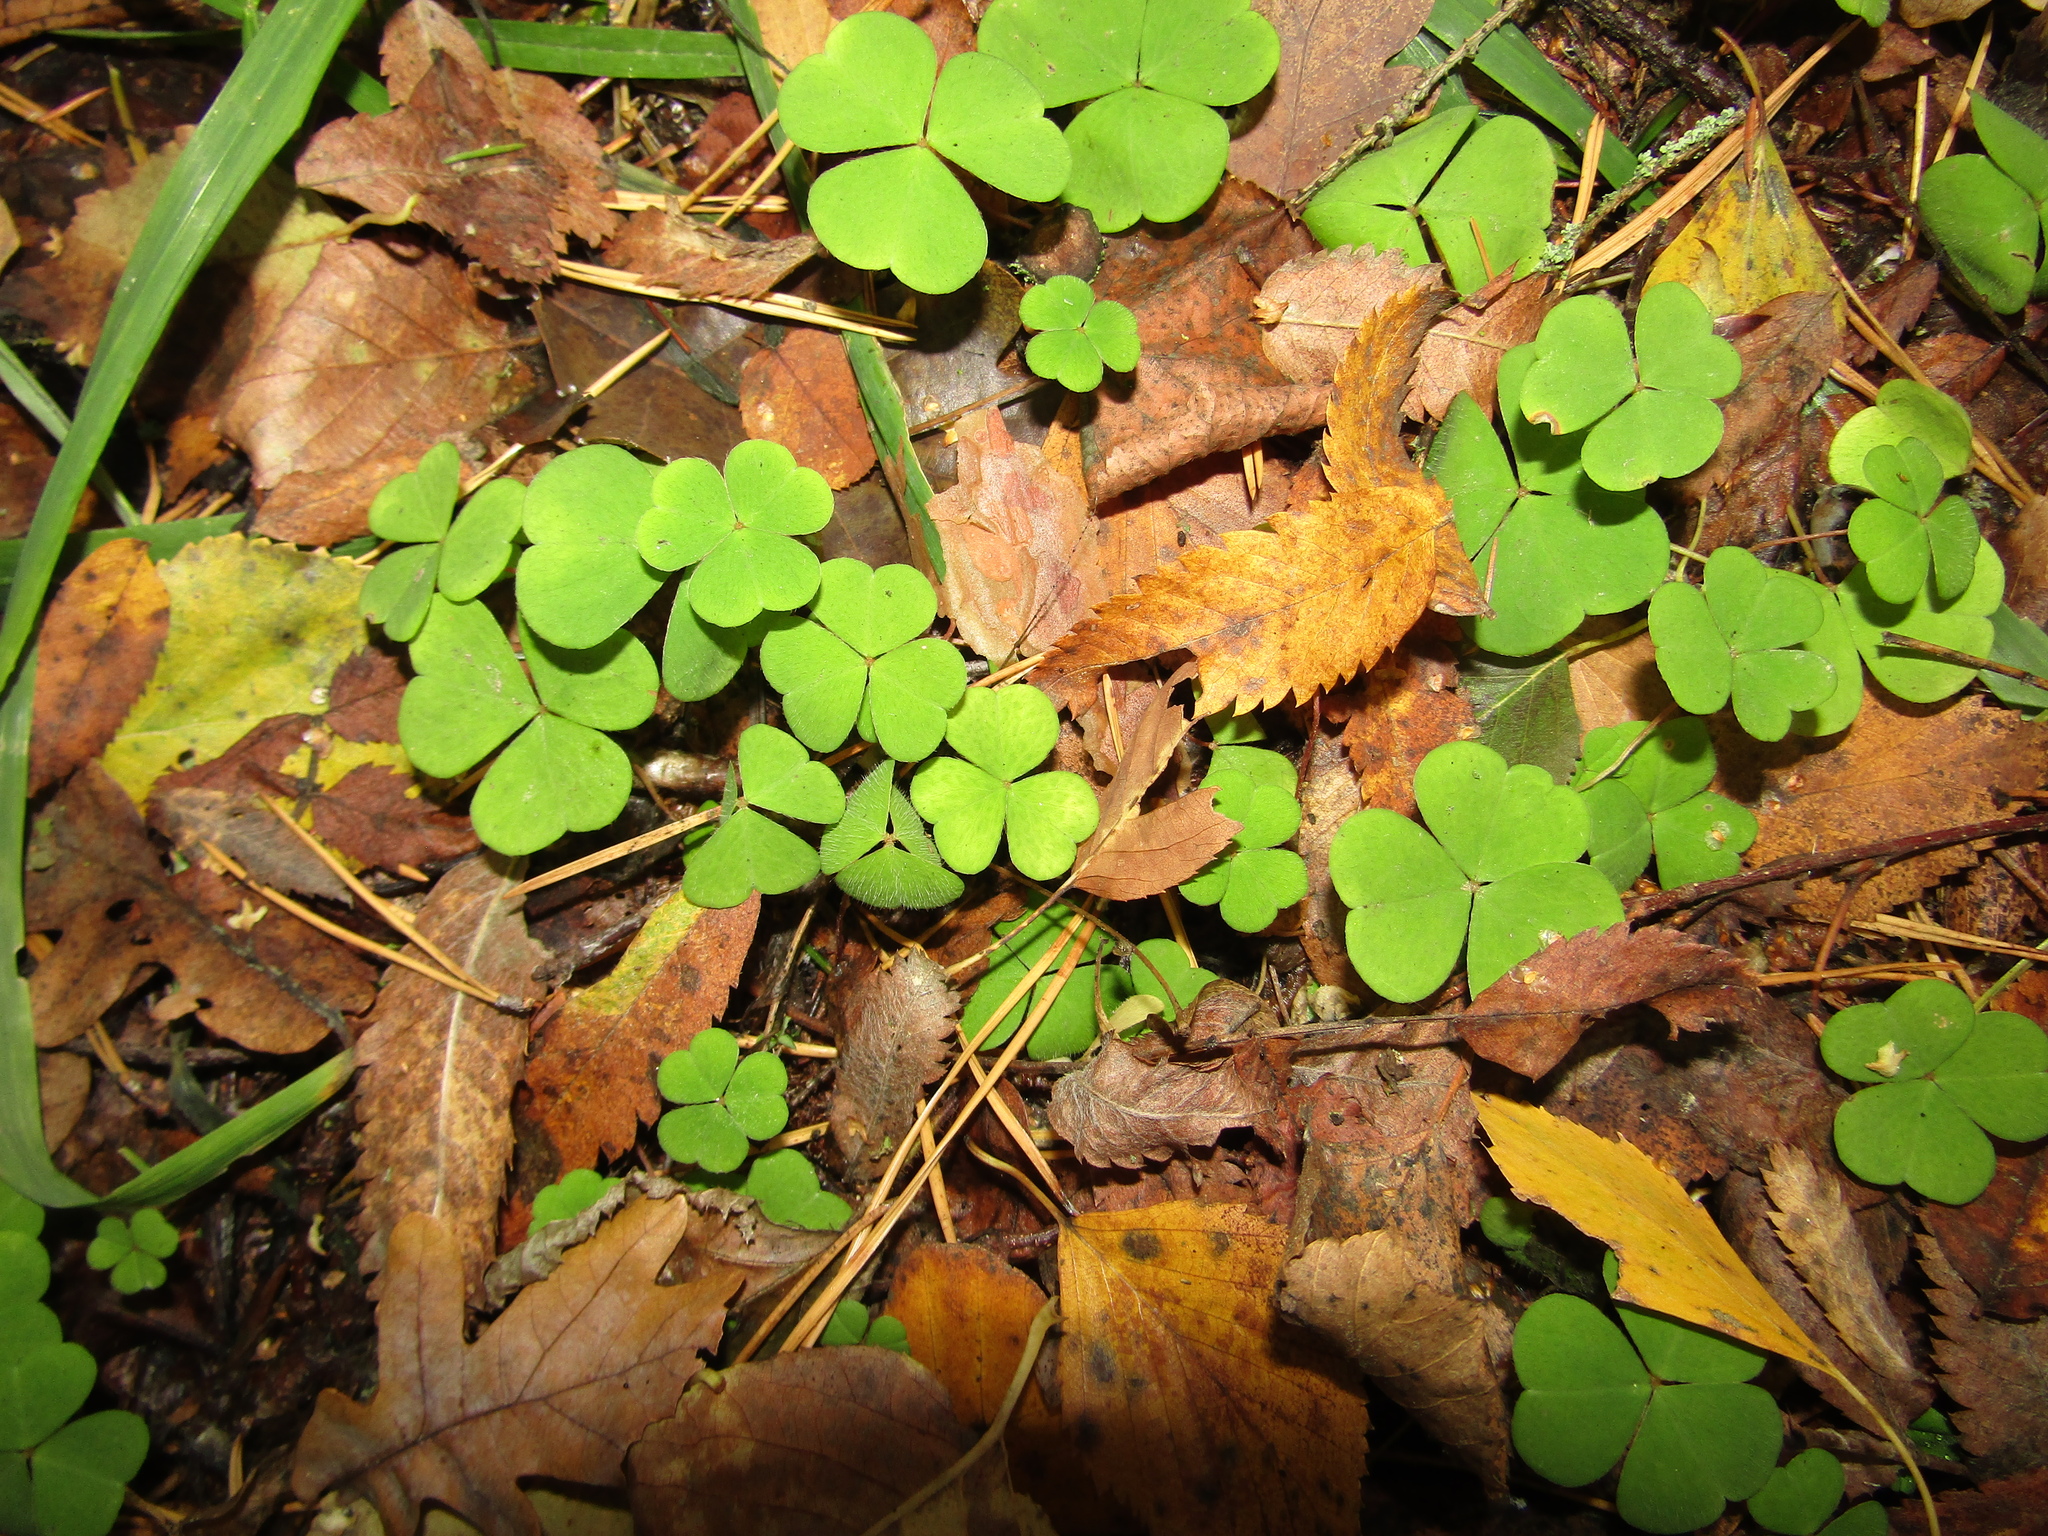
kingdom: Plantae
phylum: Tracheophyta
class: Magnoliopsida
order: Oxalidales
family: Oxalidaceae
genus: Oxalis
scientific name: Oxalis acetosella
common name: Wood-sorrel
